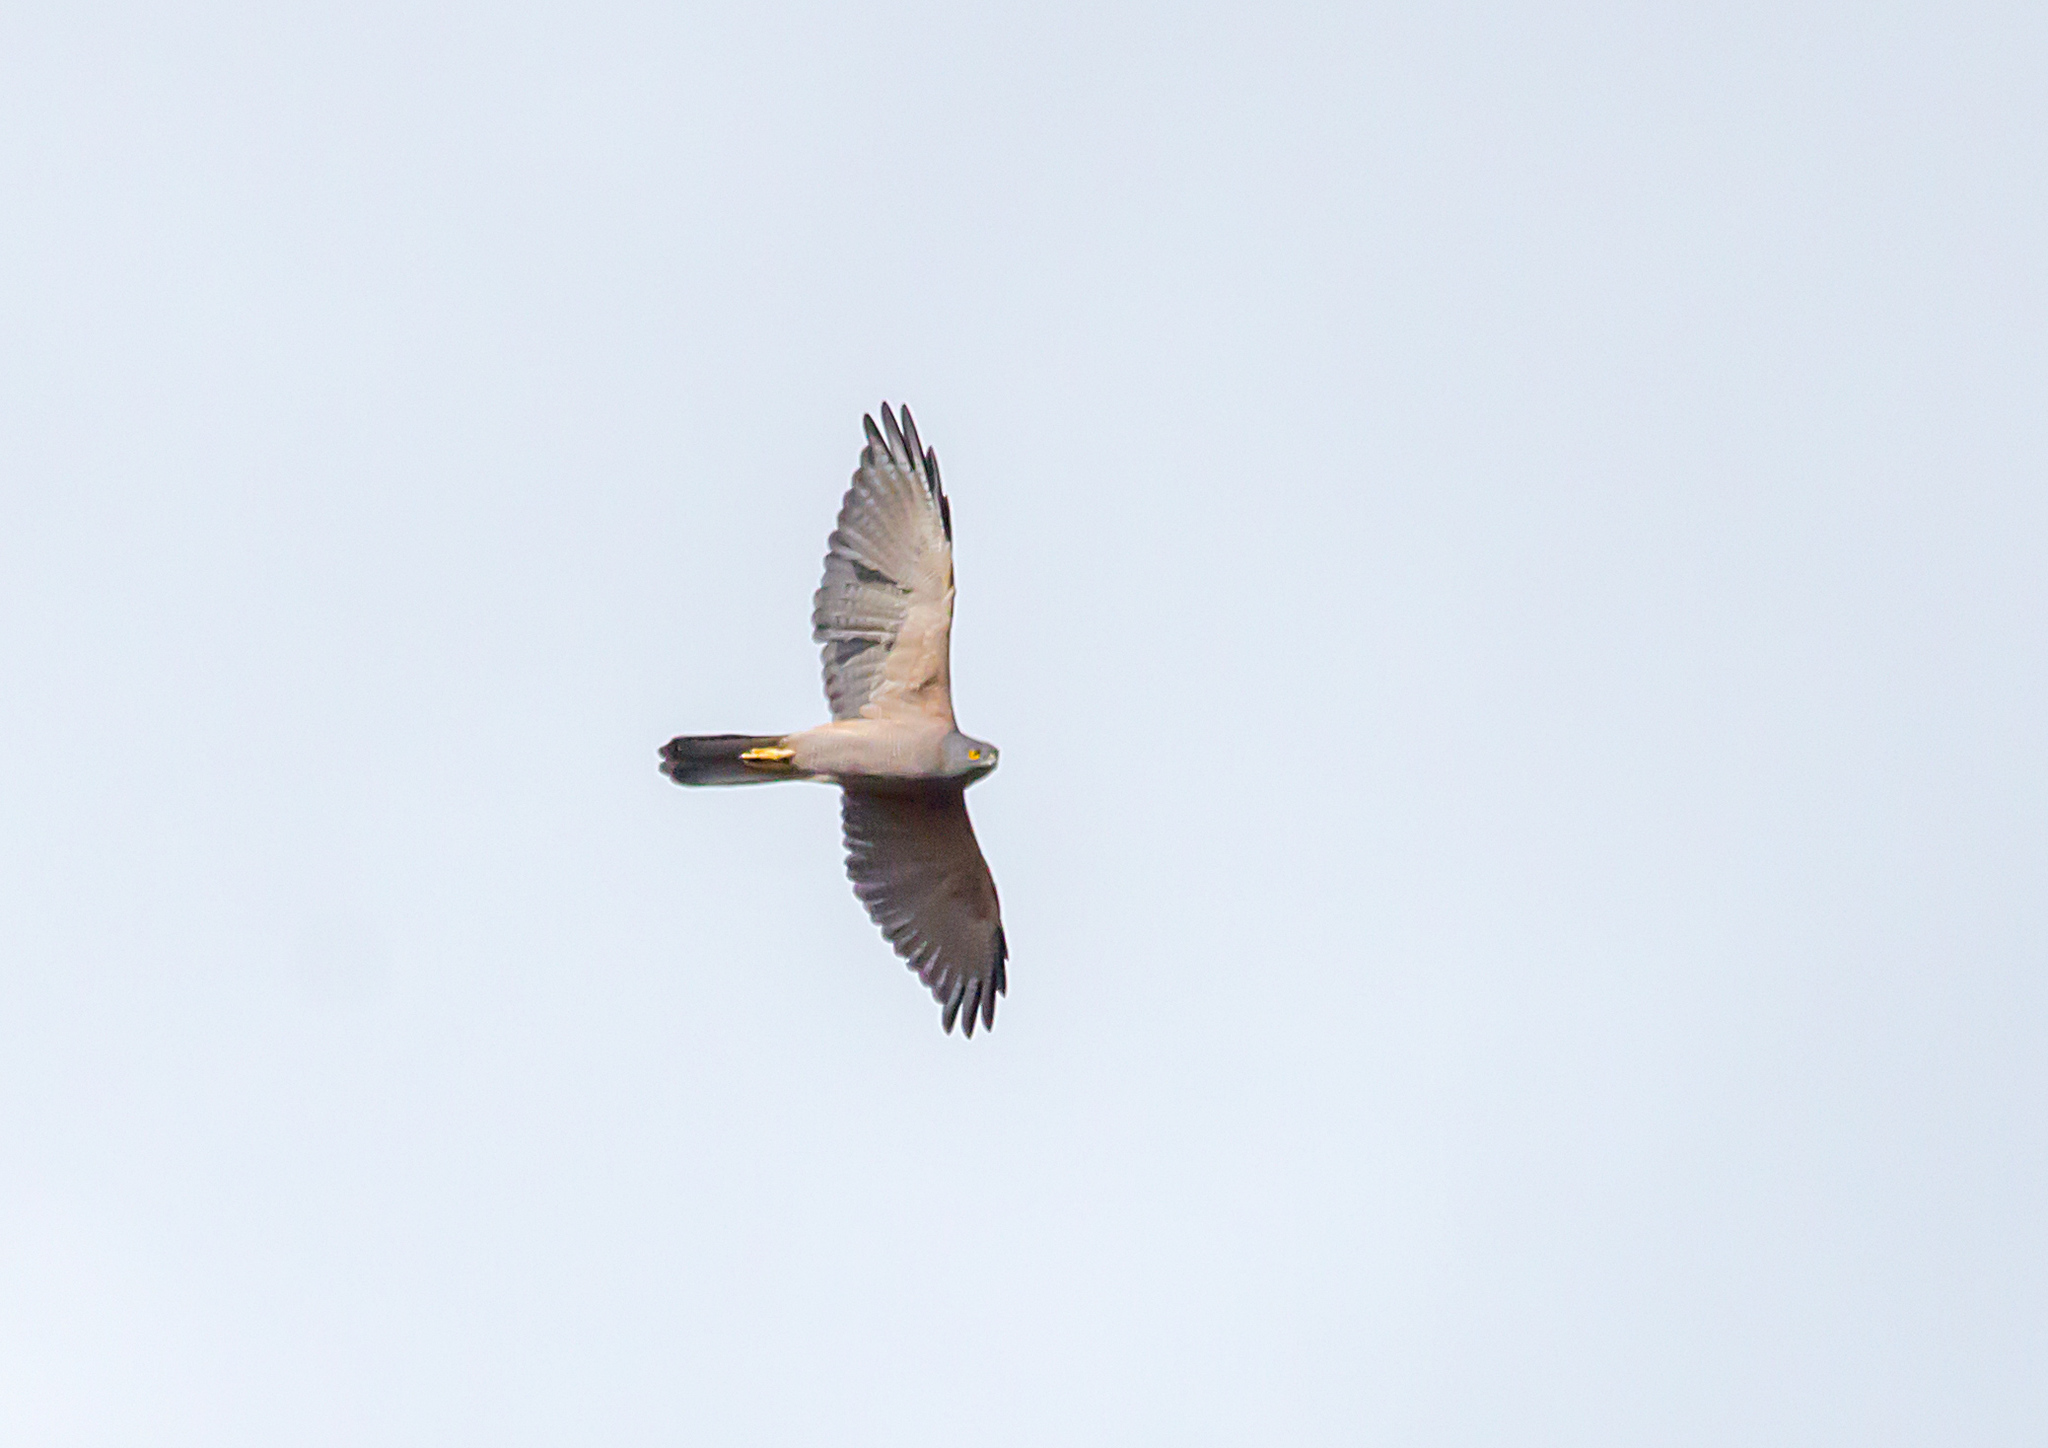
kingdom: Animalia
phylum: Chordata
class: Aves
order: Accipitriformes
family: Accipitridae
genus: Accipiter
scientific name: Accipiter fasciatus
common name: Brown goshawk
